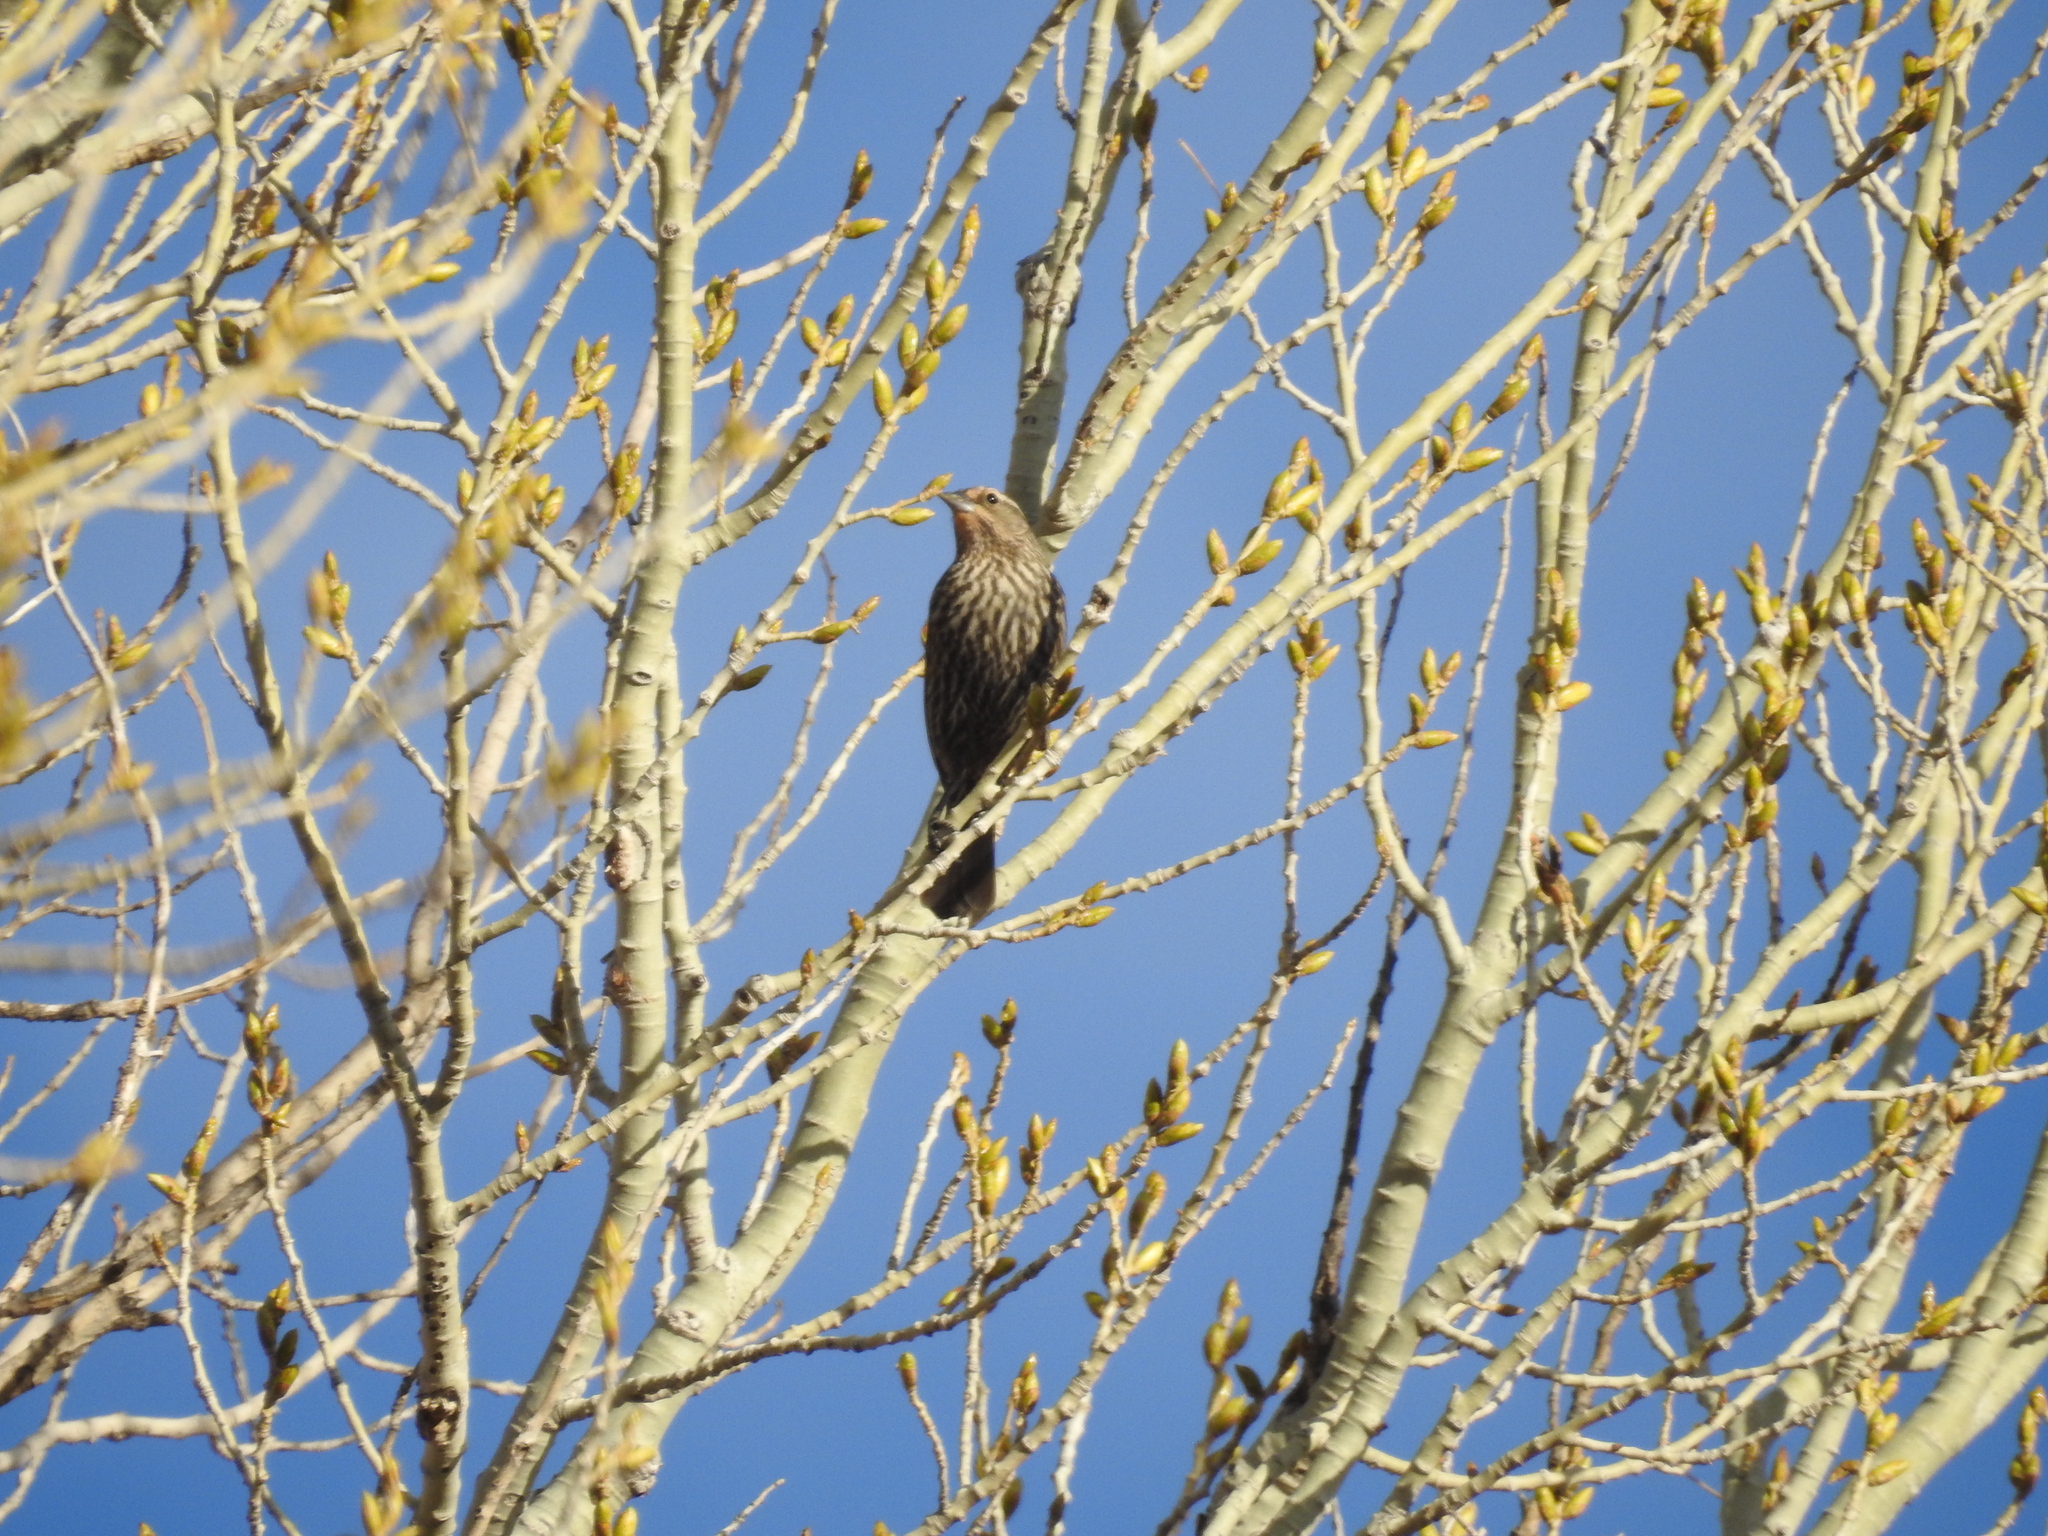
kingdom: Animalia
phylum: Chordata
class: Aves
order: Passeriformes
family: Icteridae
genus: Agelaius
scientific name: Agelaius phoeniceus
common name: Red-winged blackbird
